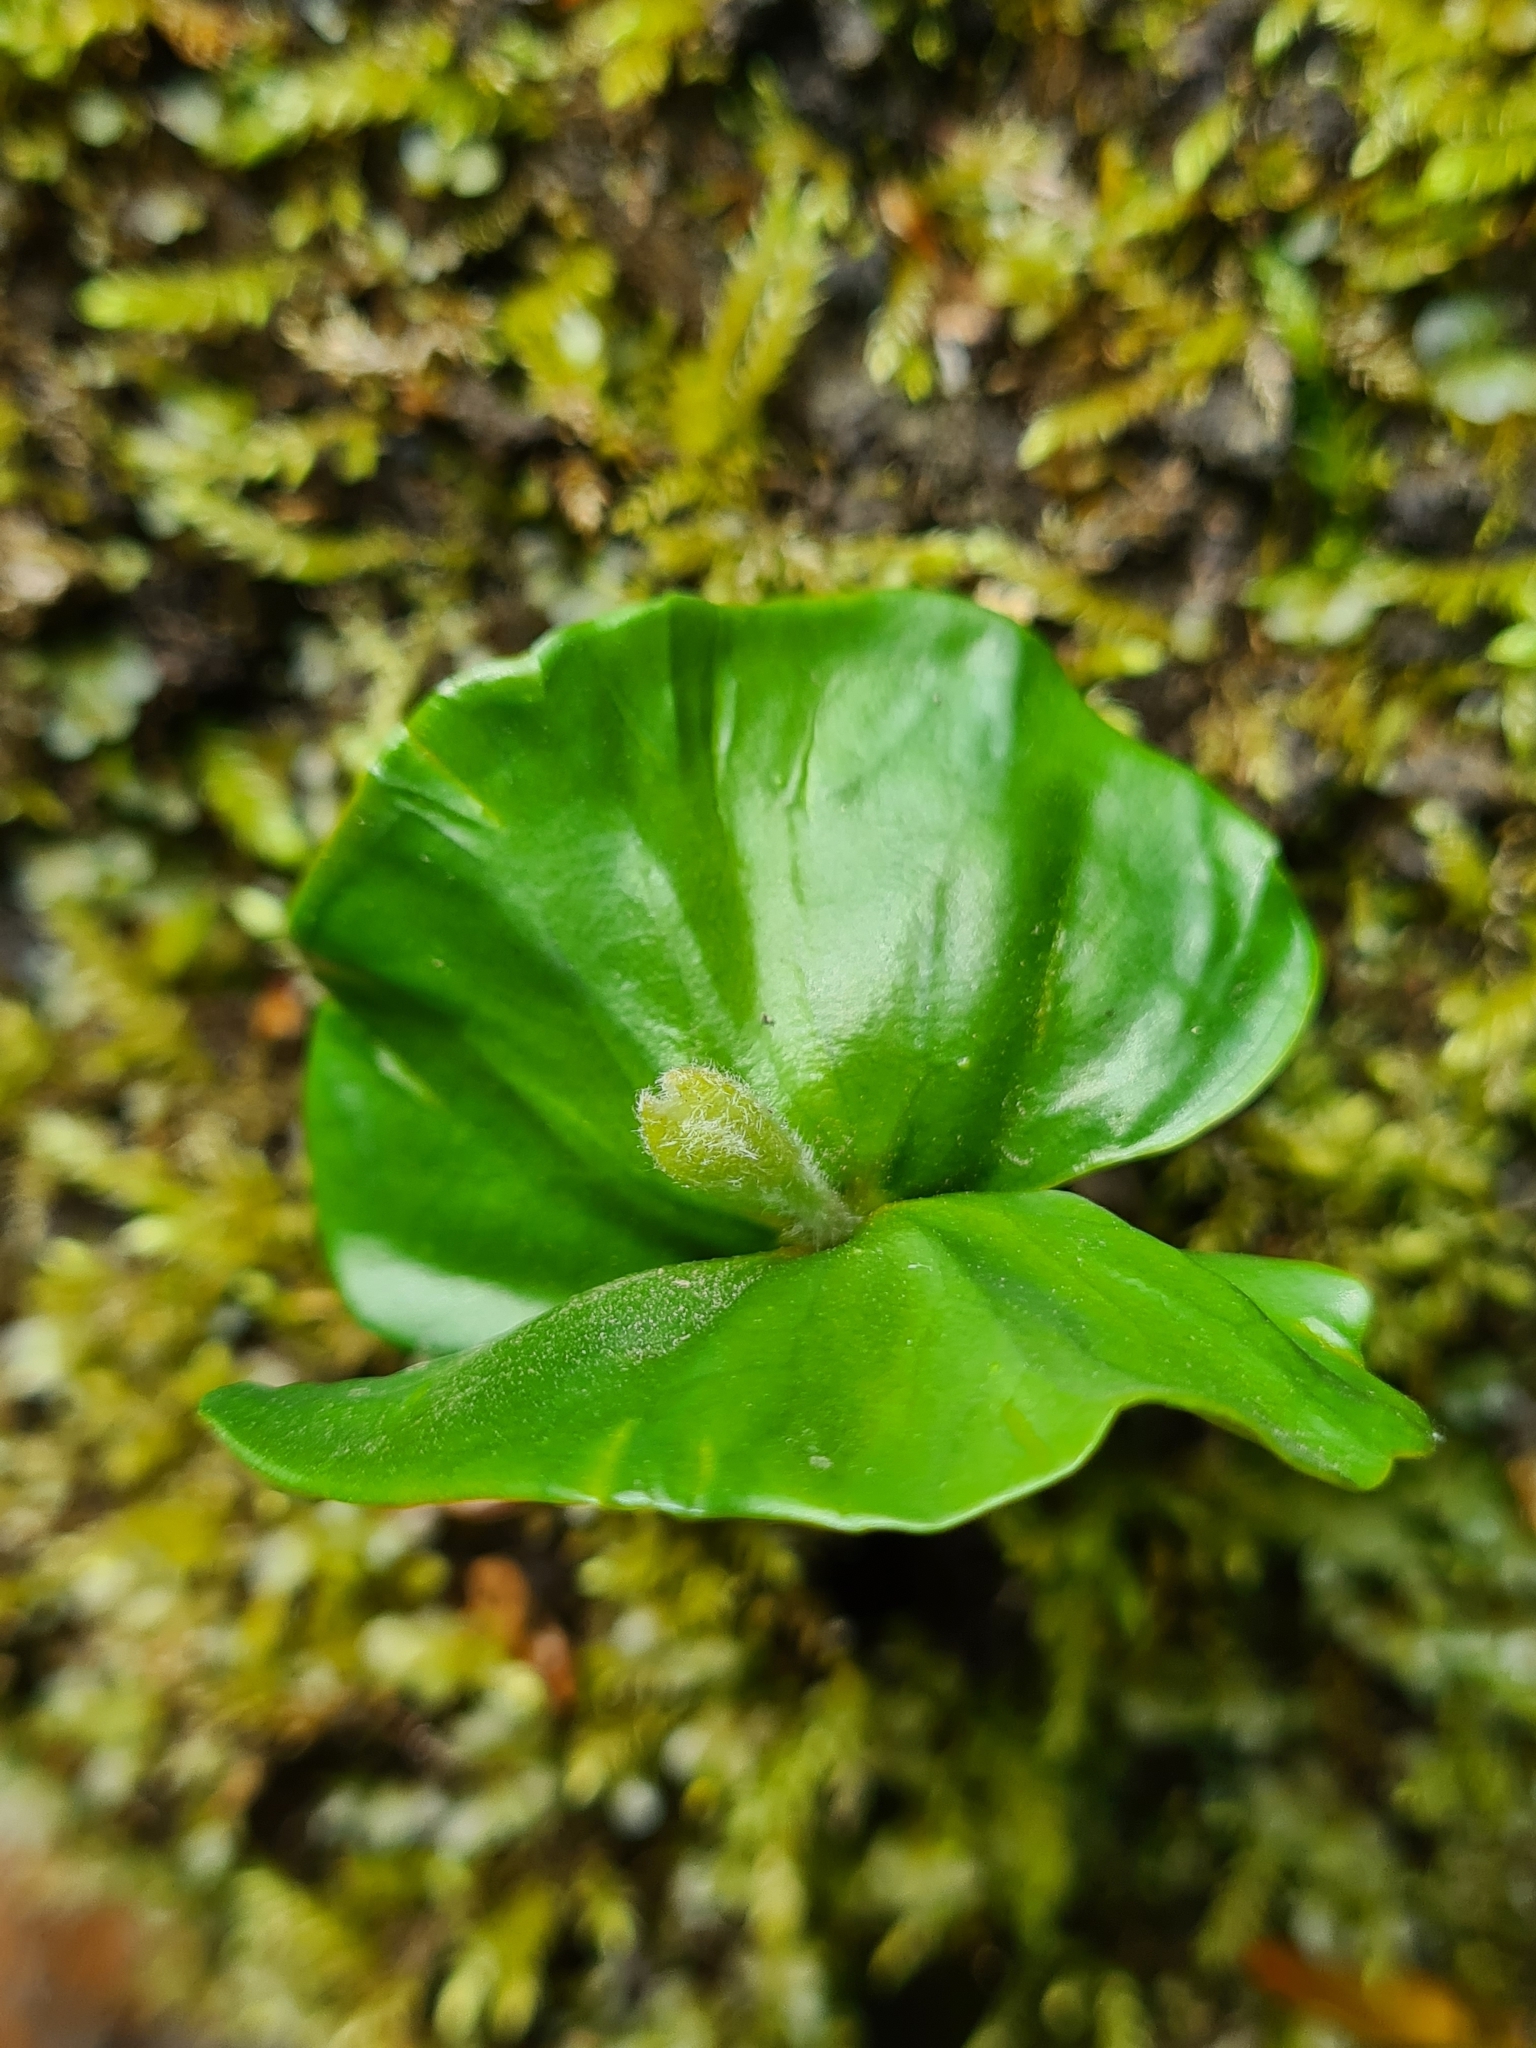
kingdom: Plantae
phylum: Tracheophyta
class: Magnoliopsida
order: Fagales
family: Fagaceae
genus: Fagus
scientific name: Fagus sylvatica
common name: Beech
